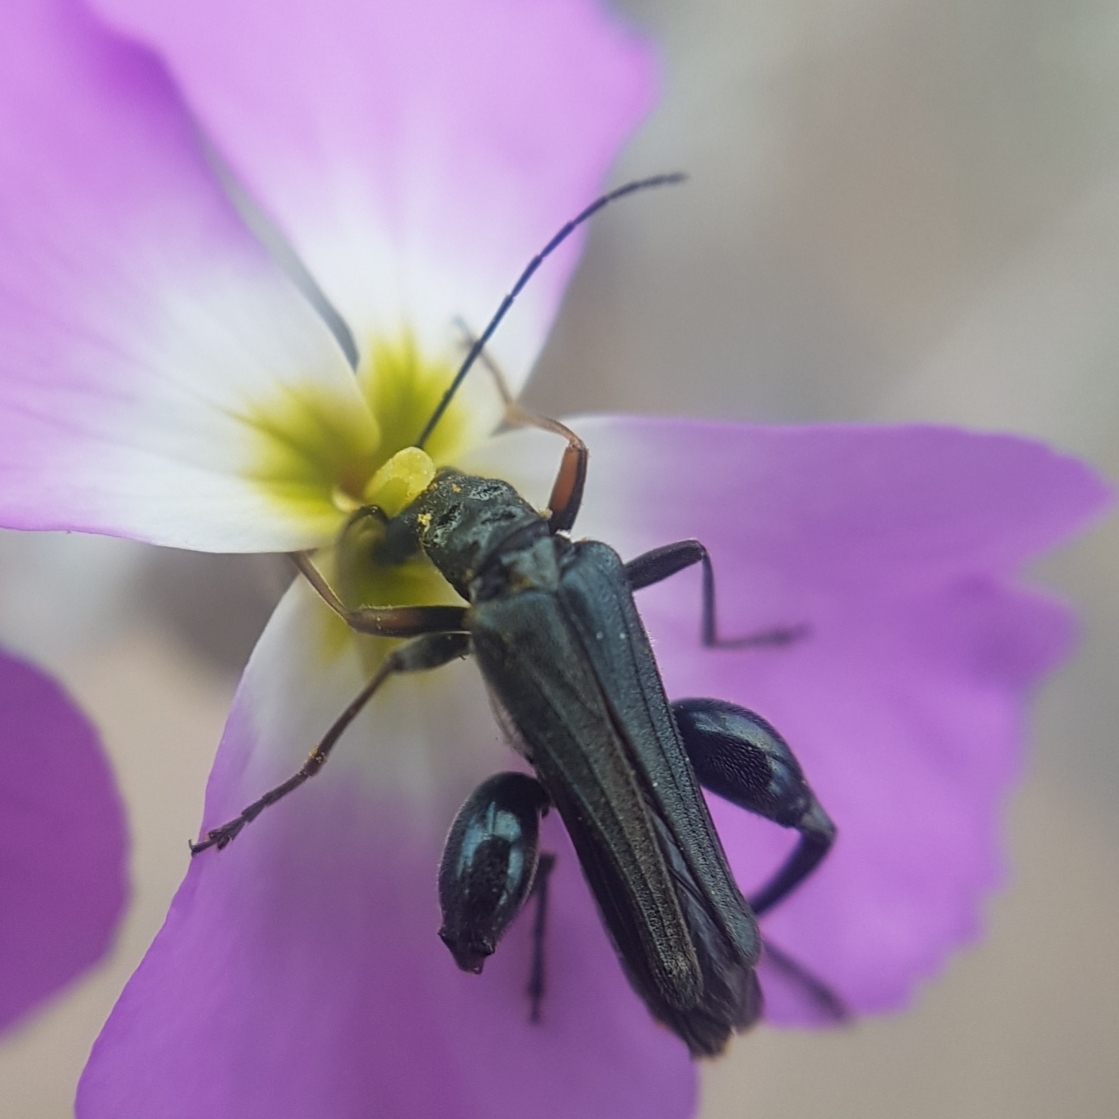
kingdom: Animalia
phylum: Arthropoda
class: Insecta
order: Coleoptera
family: Oedemeridae
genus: Oedemera
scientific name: Oedemera flavipes
